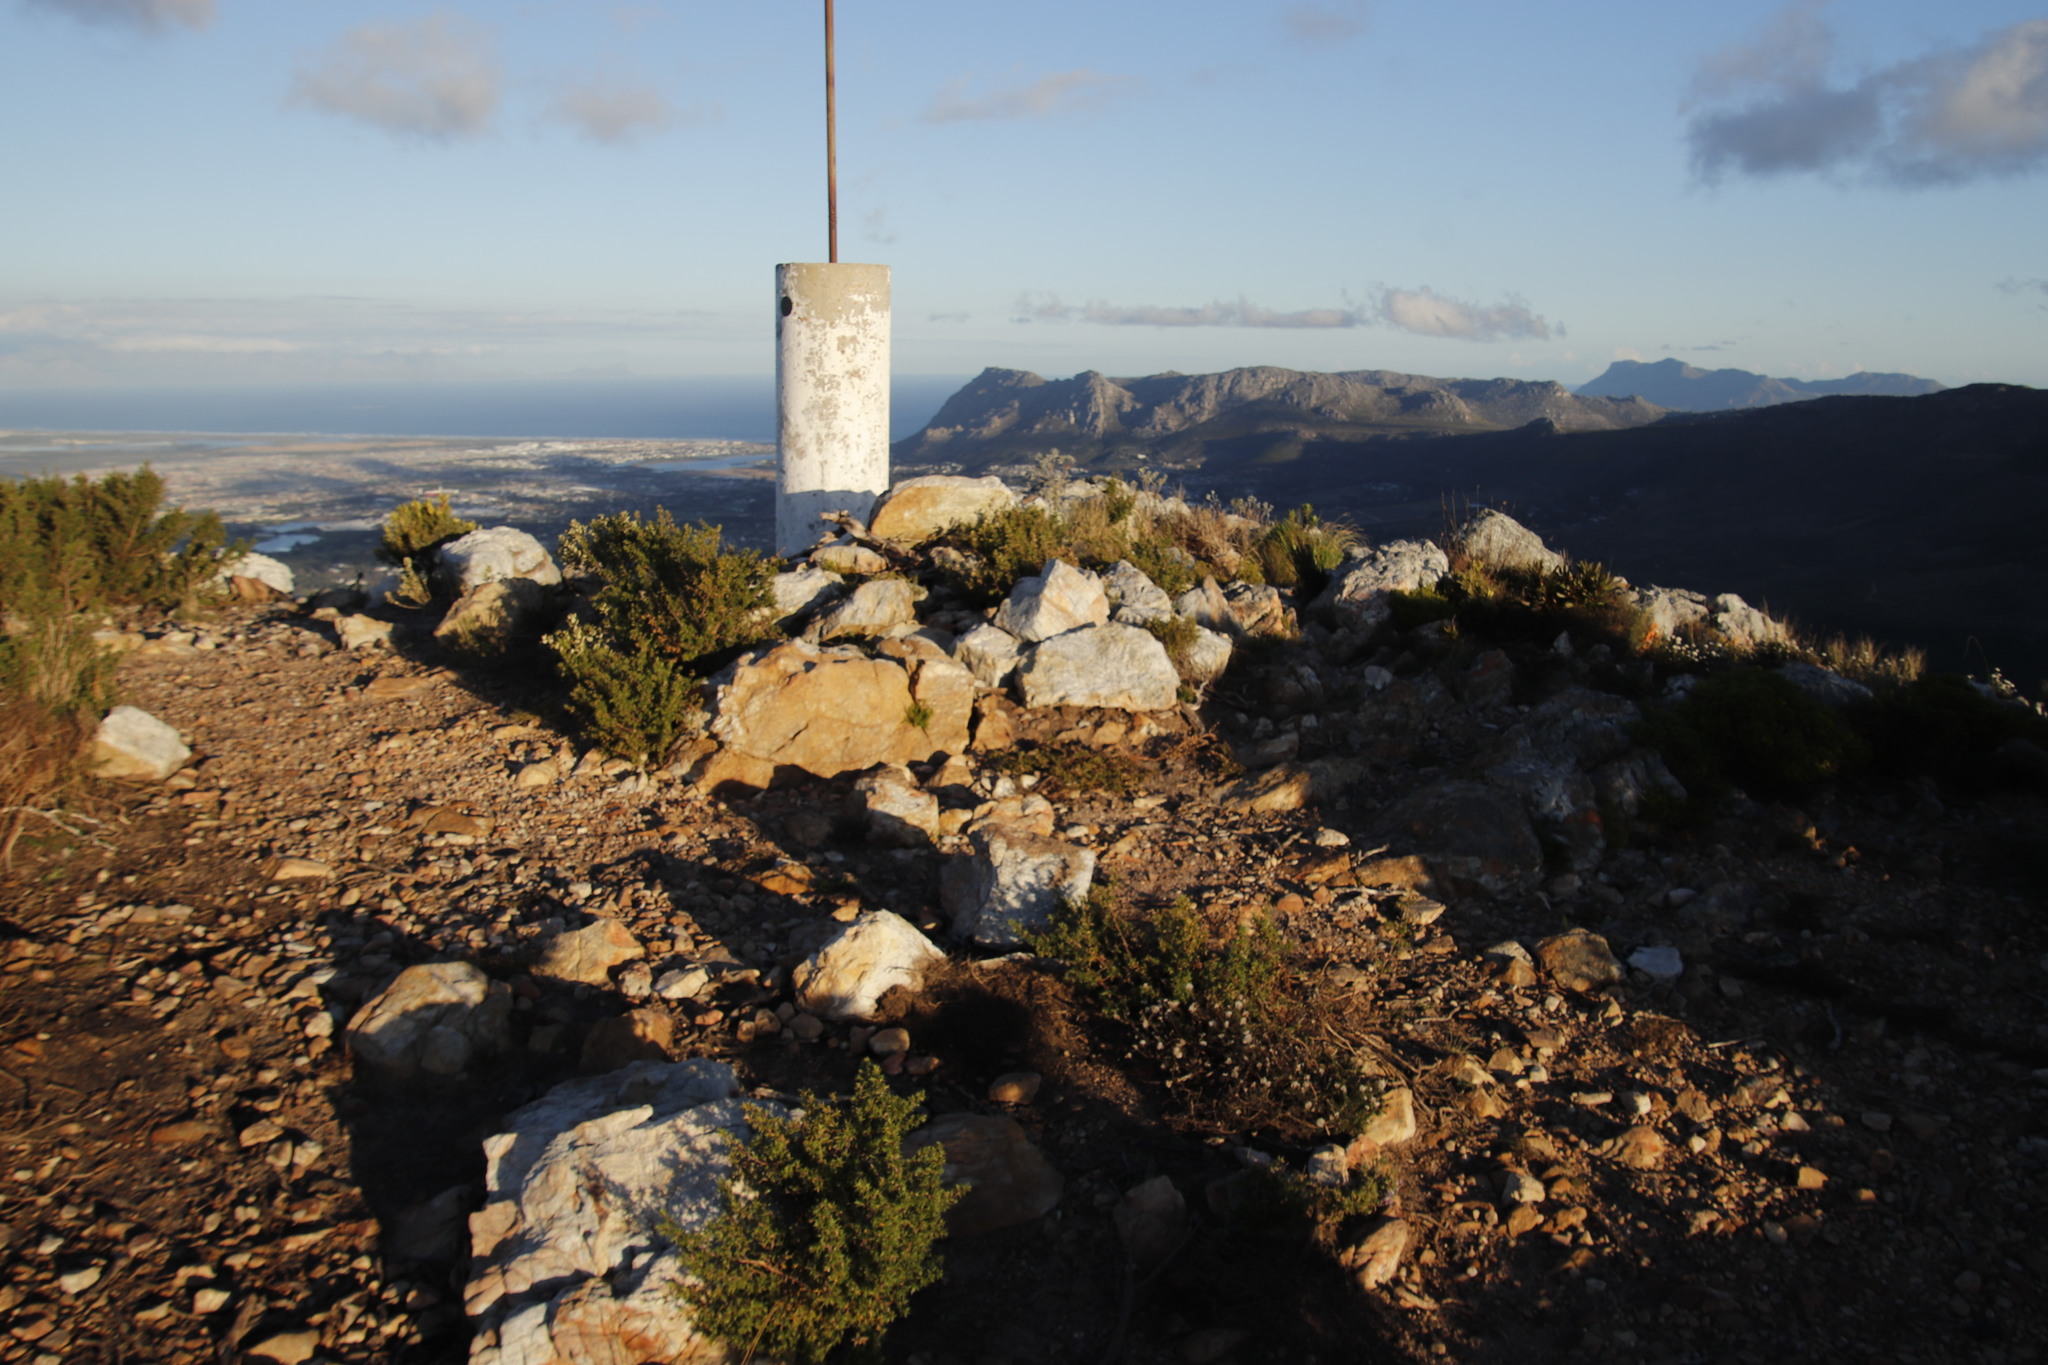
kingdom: Plantae
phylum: Tracheophyta
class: Magnoliopsida
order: Fabales
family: Fabaceae
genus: Amphithalea
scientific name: Amphithalea ericifolia
